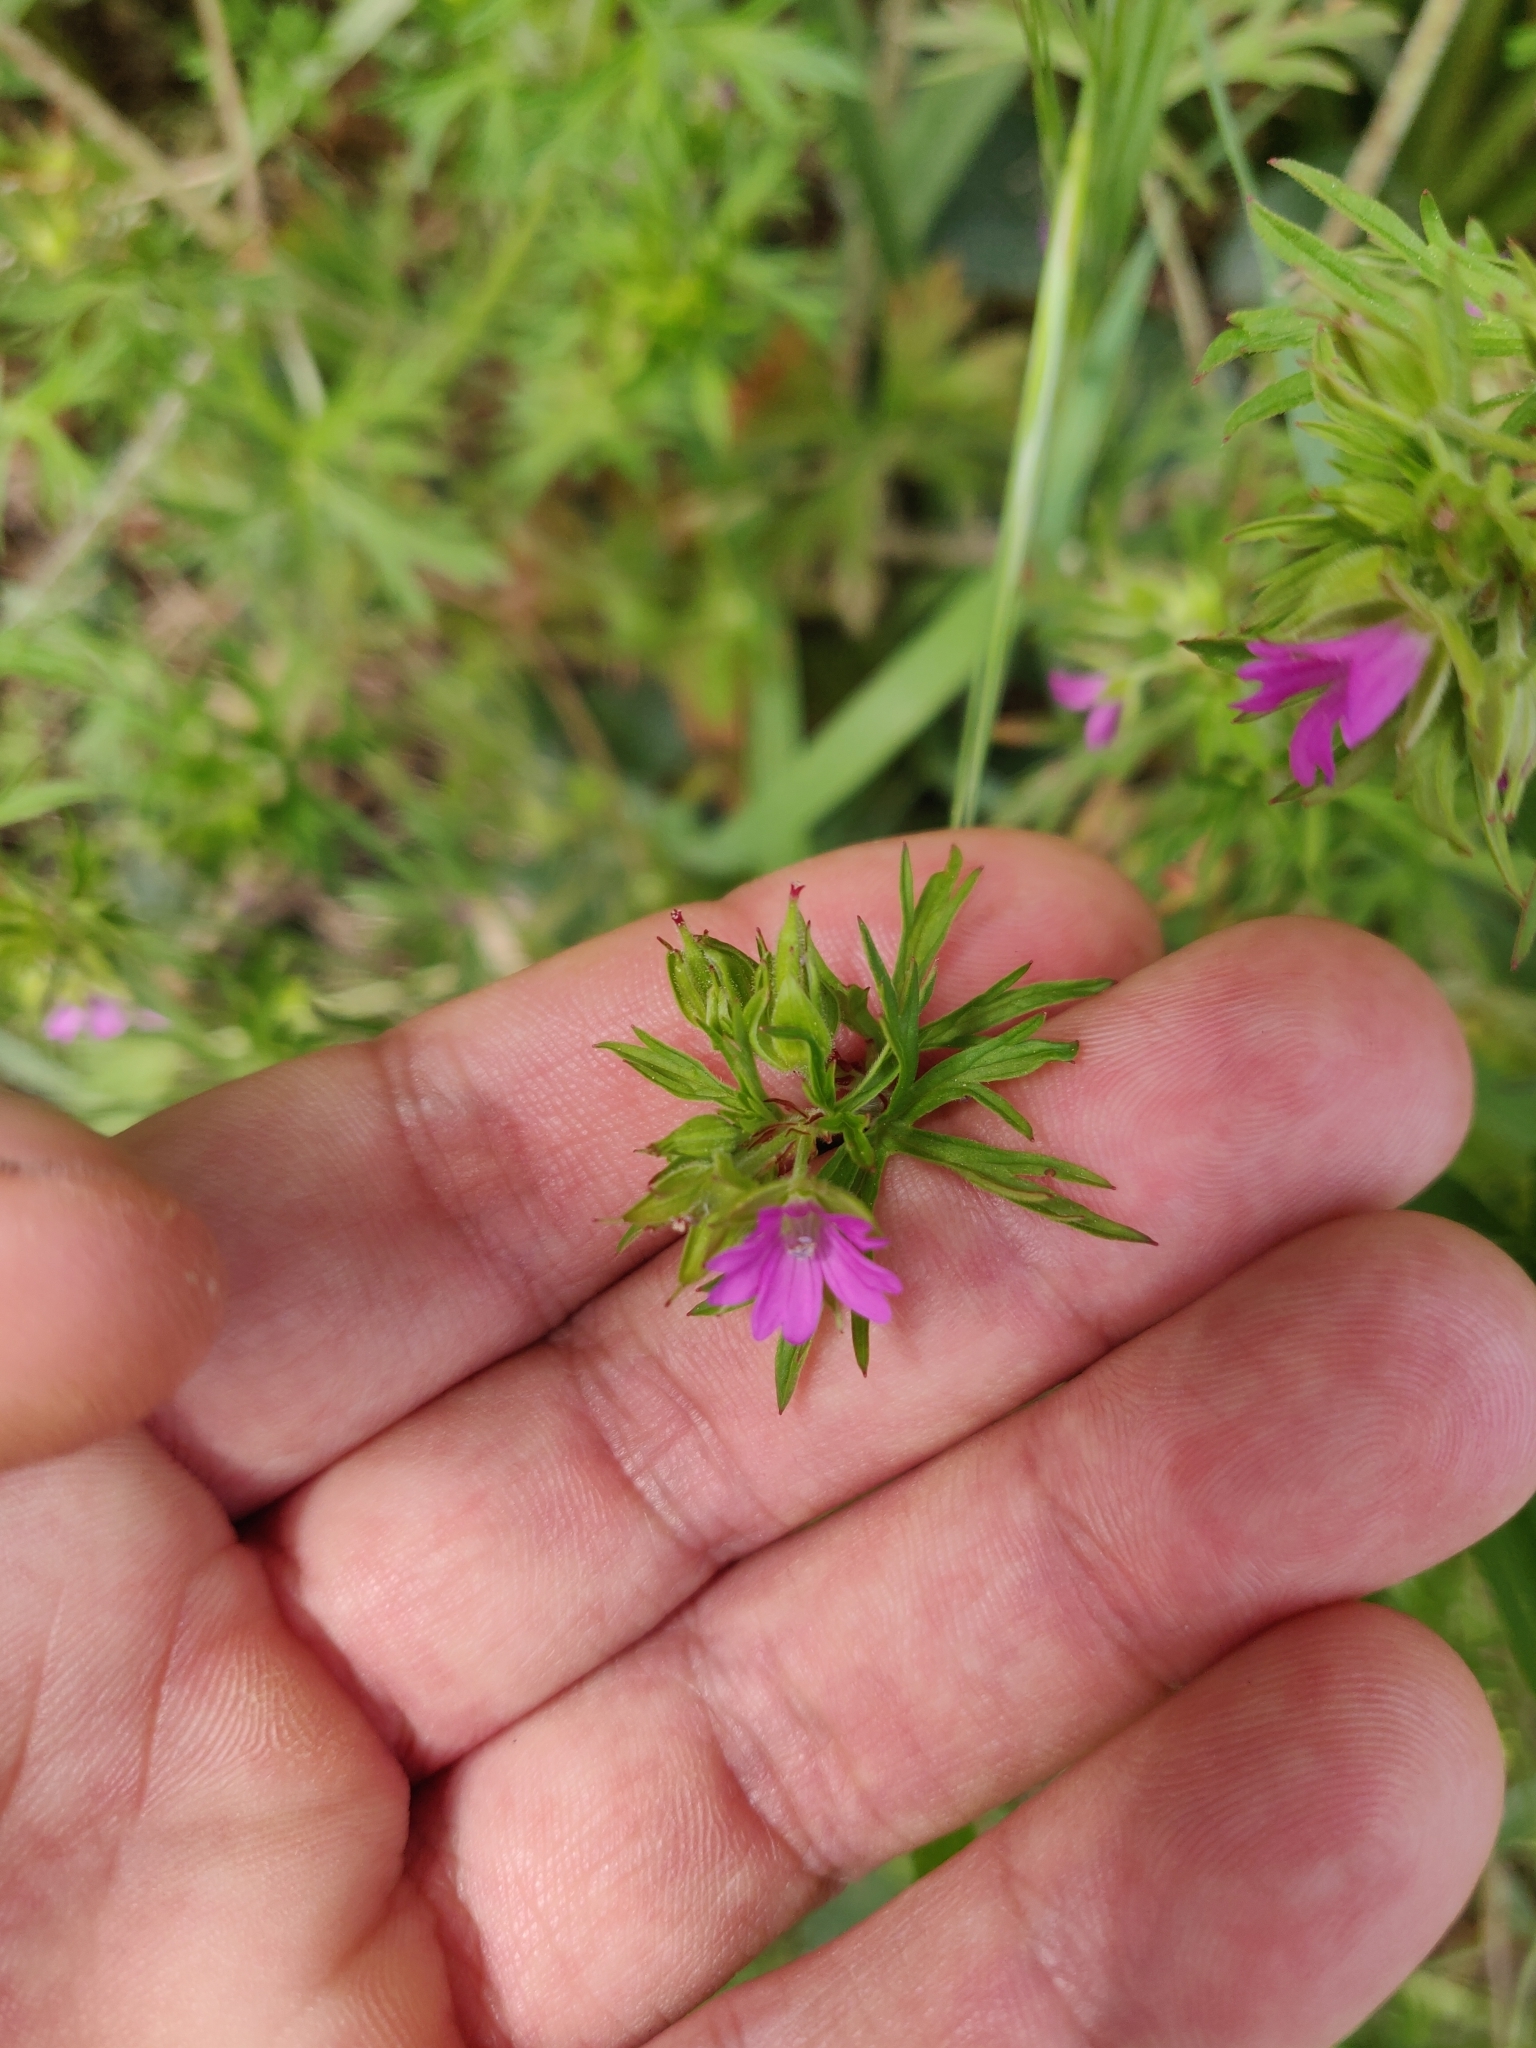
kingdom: Plantae
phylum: Tracheophyta
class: Magnoliopsida
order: Geraniales
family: Geraniaceae
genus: Geranium
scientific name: Geranium dissectum
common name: Cut-leaved crane's-bill
